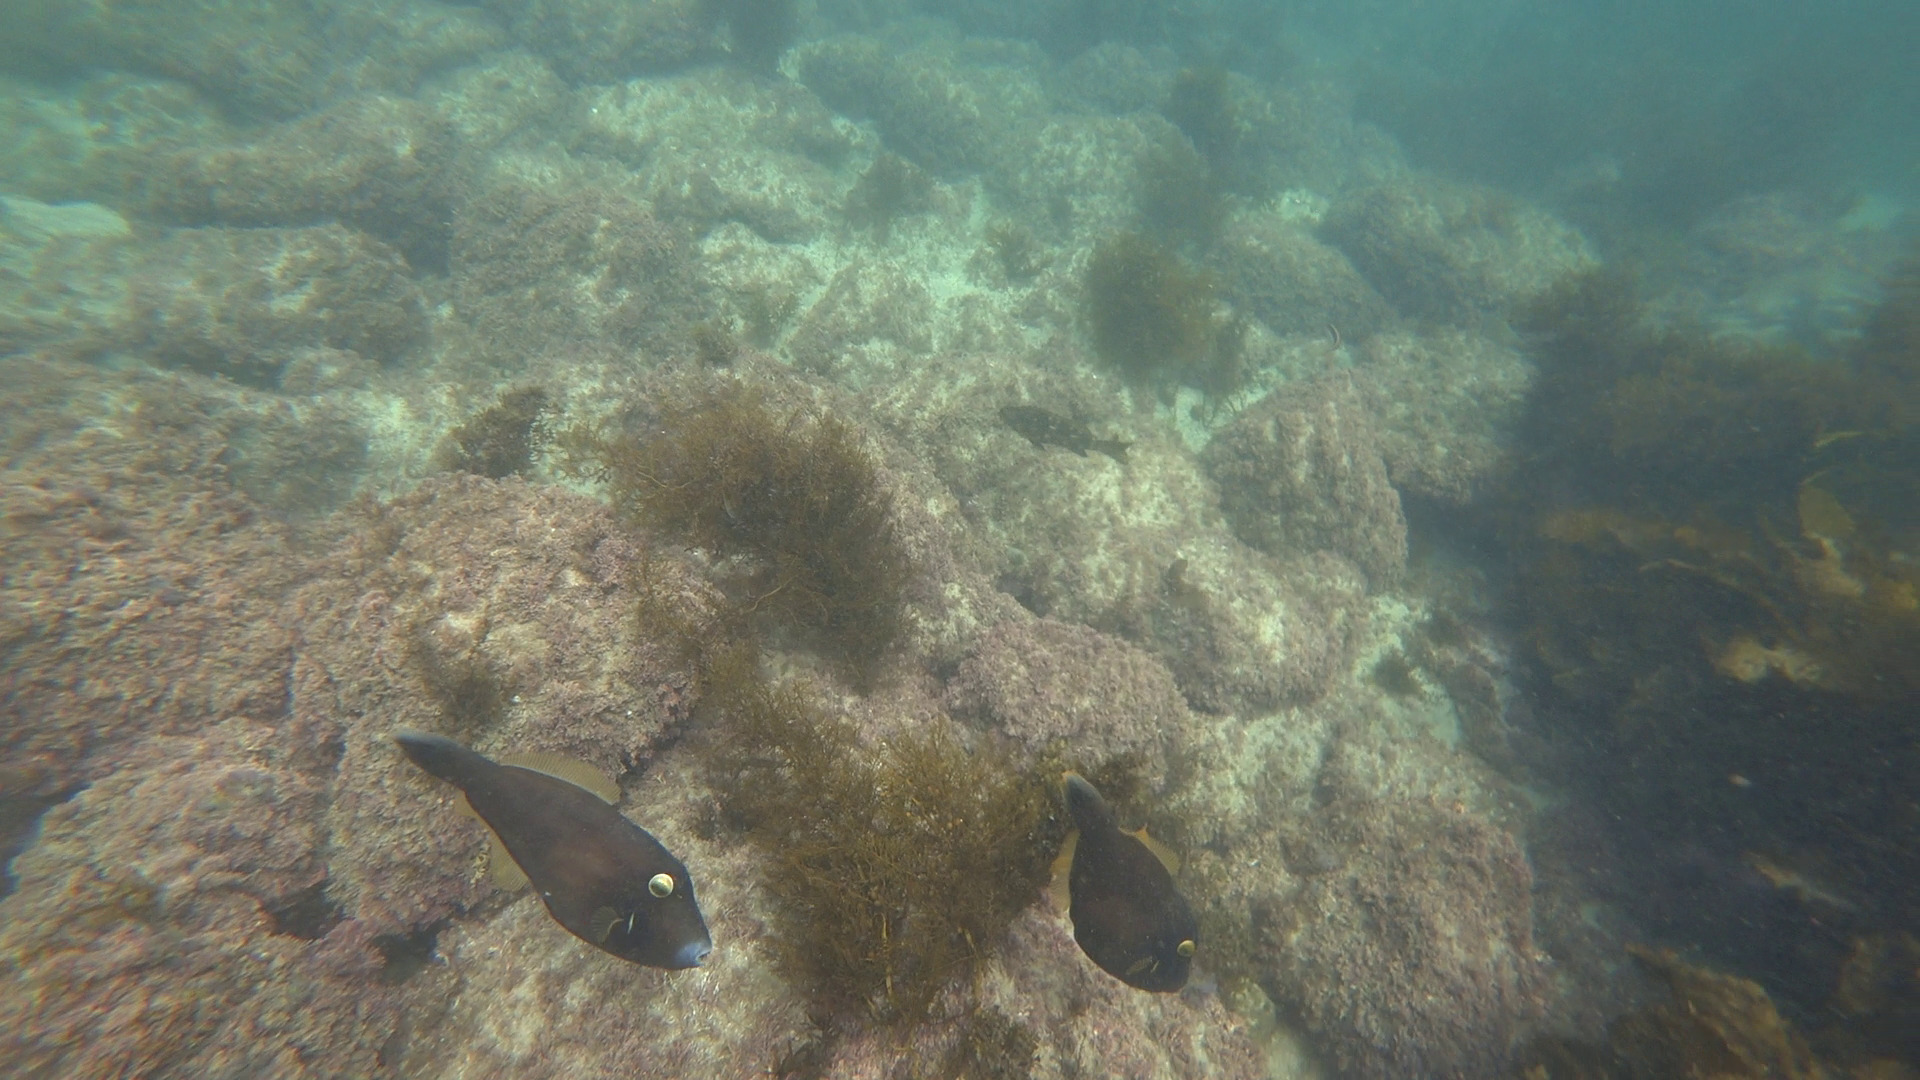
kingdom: Animalia
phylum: Chordata
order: Tetraodontiformes
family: Monacanthidae
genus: Eubalichthys
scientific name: Eubalichthys bucephalus
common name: Black reef leatherjacket
